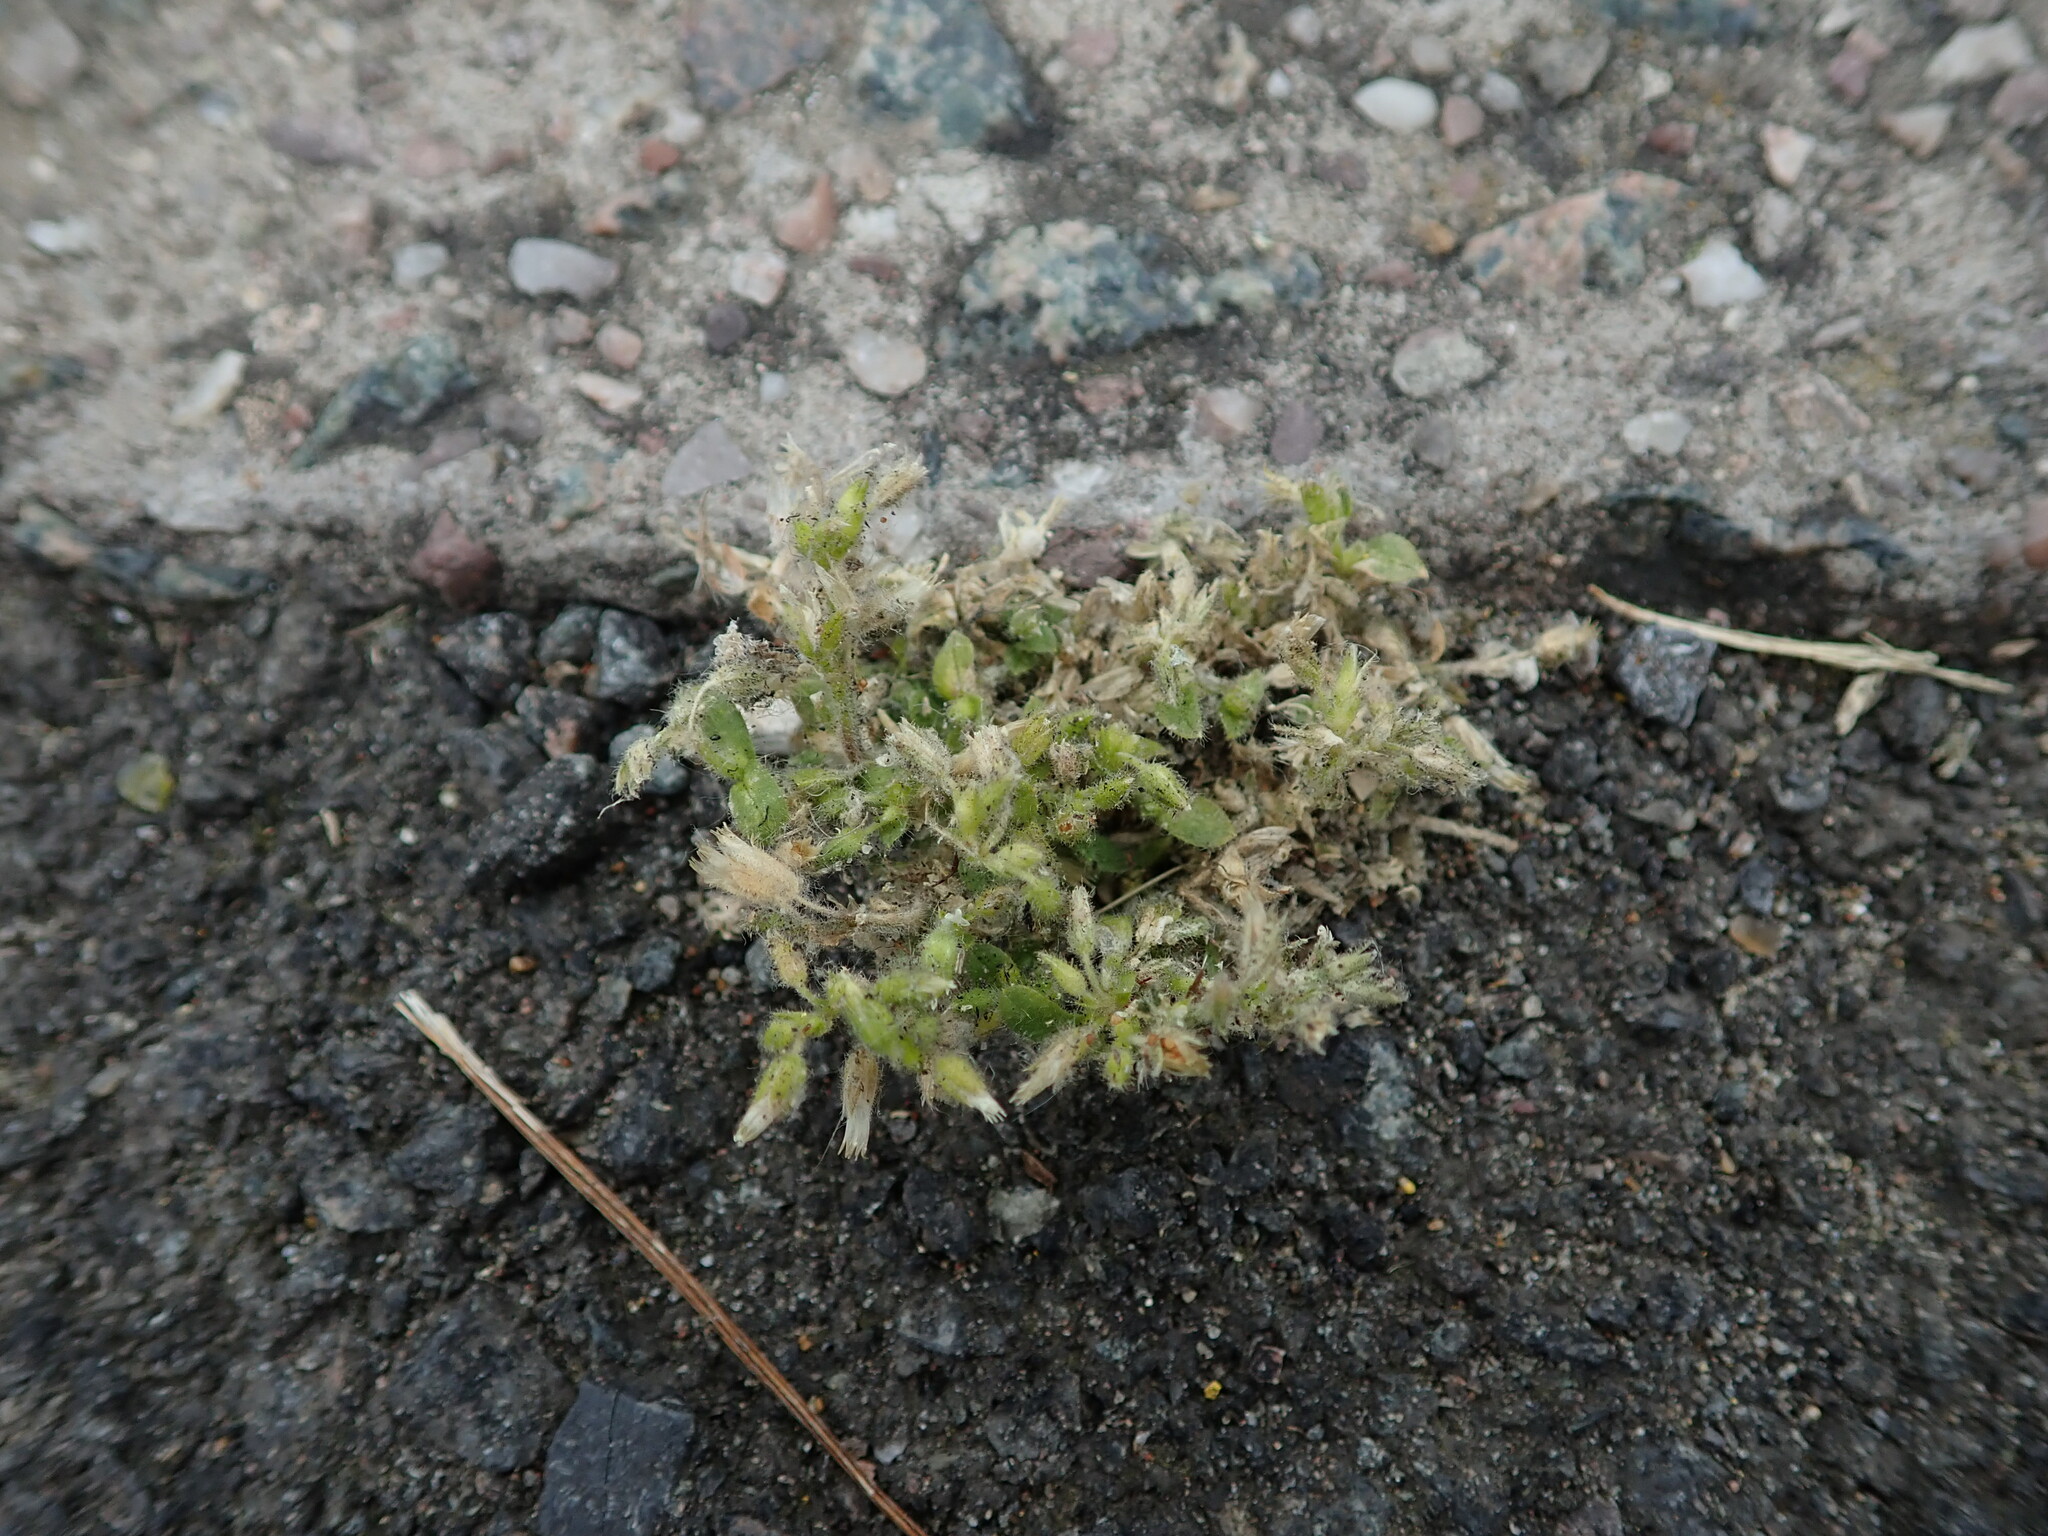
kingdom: Plantae
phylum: Tracheophyta
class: Magnoliopsida
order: Caryophyllales
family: Caryophyllaceae
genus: Cerastium
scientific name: Cerastium glomeratum
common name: Sticky chickweed
